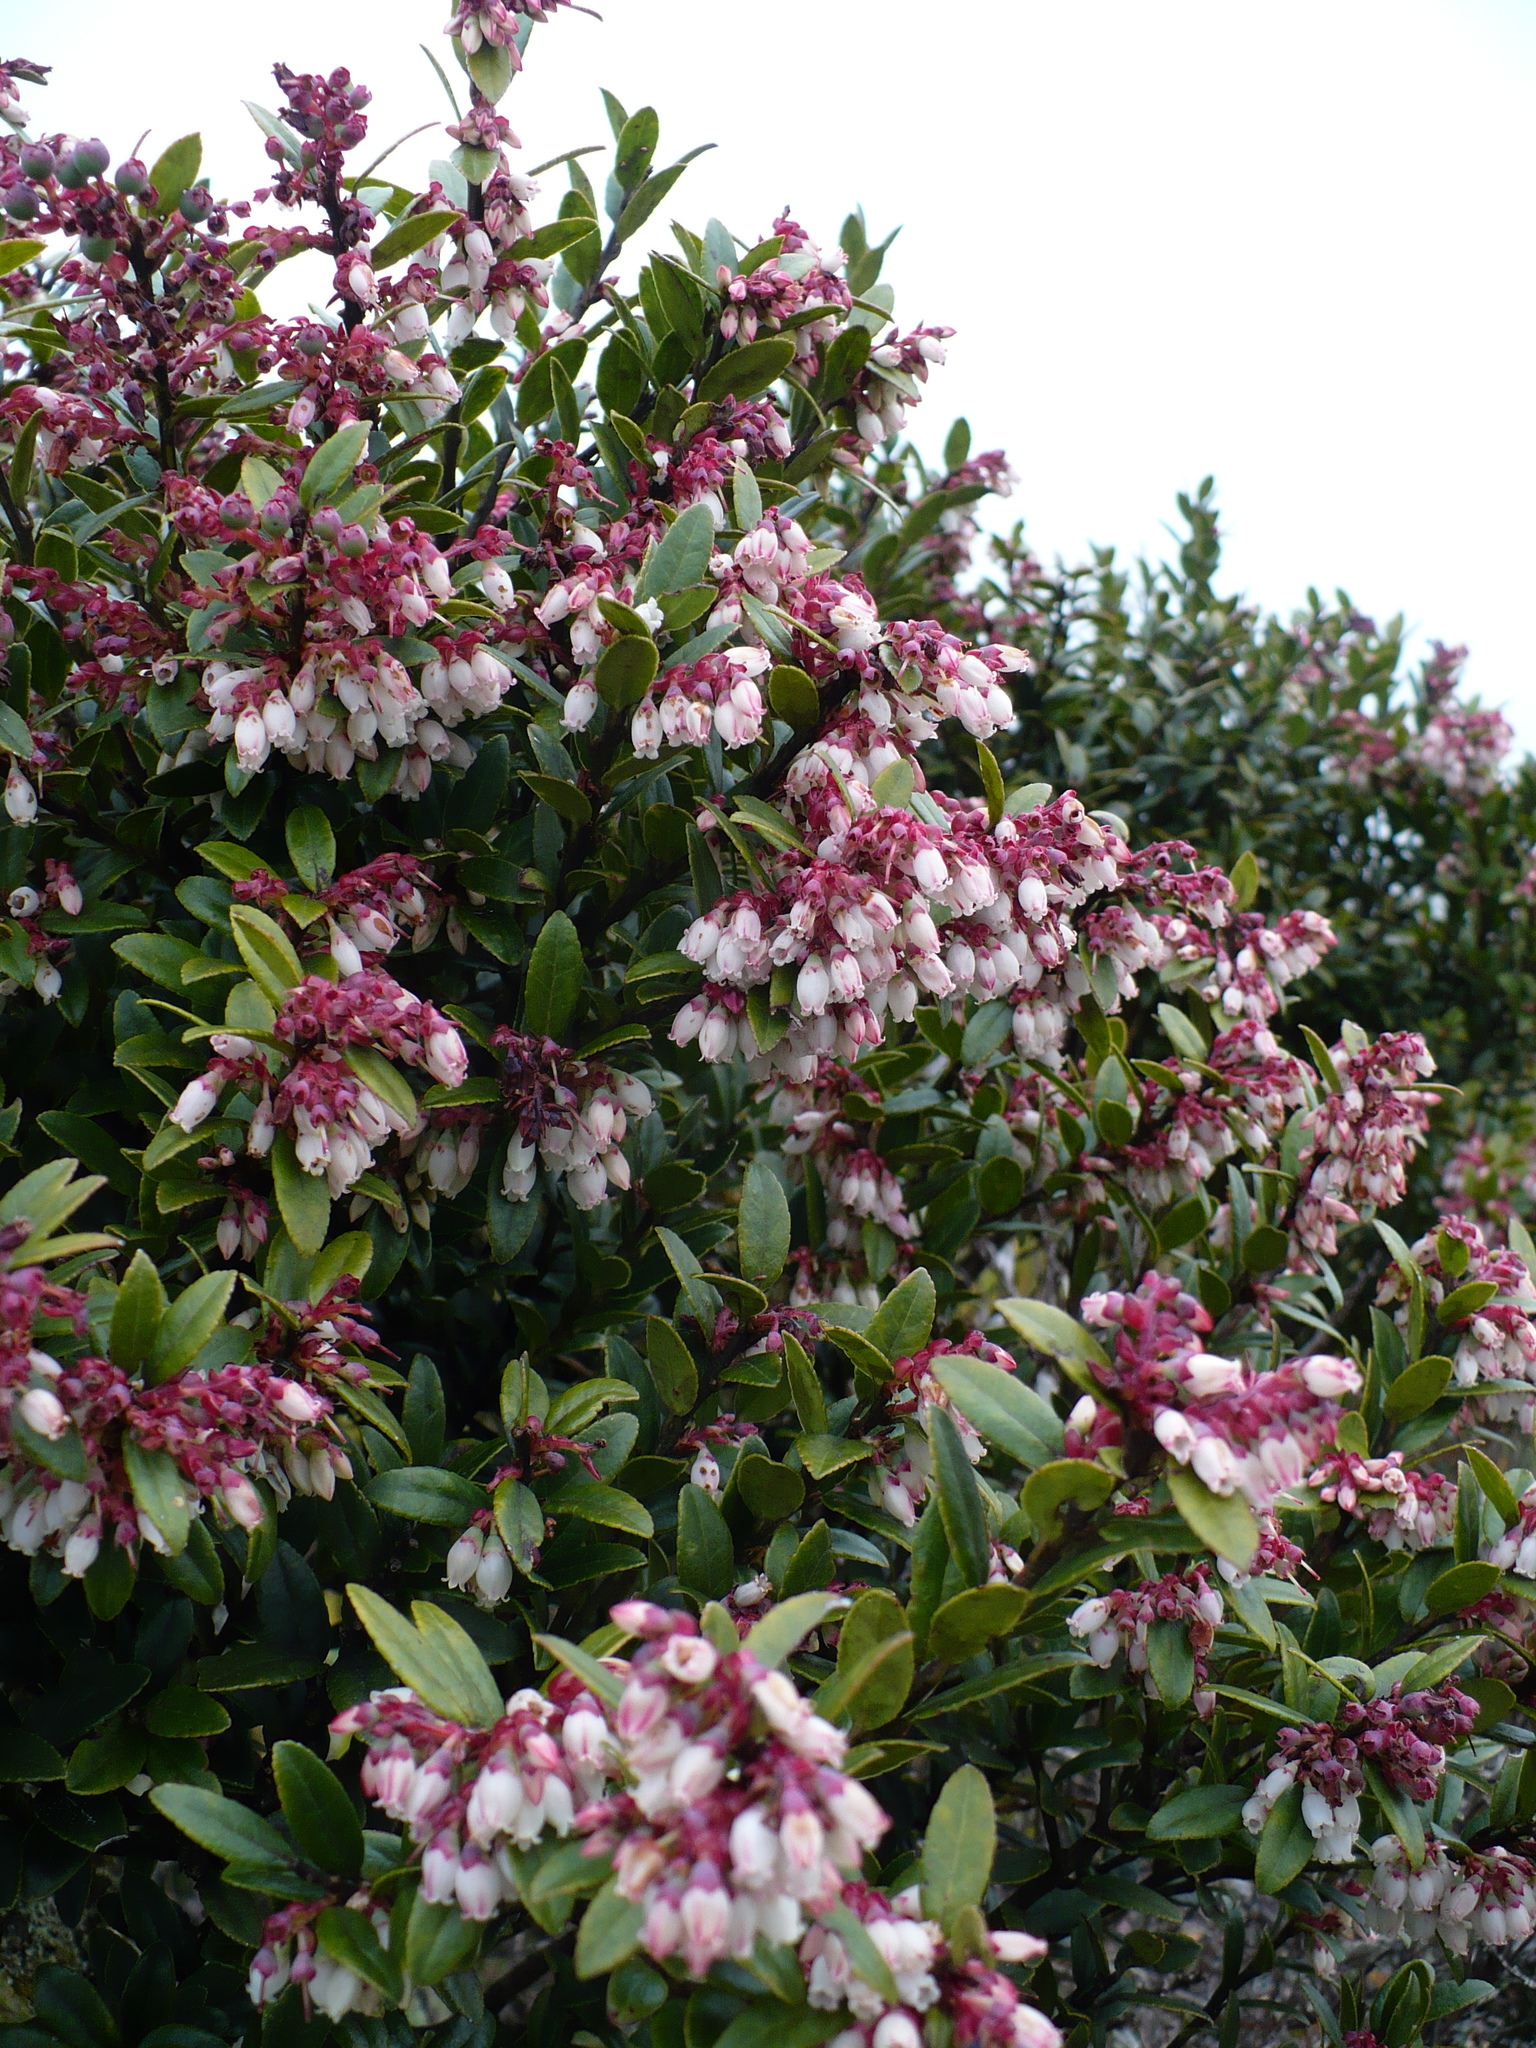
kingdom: Plantae
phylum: Tracheophyta
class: Magnoliopsida
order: Ericales
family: Ericaceae
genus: Vaccinium
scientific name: Vaccinium consanguineum
